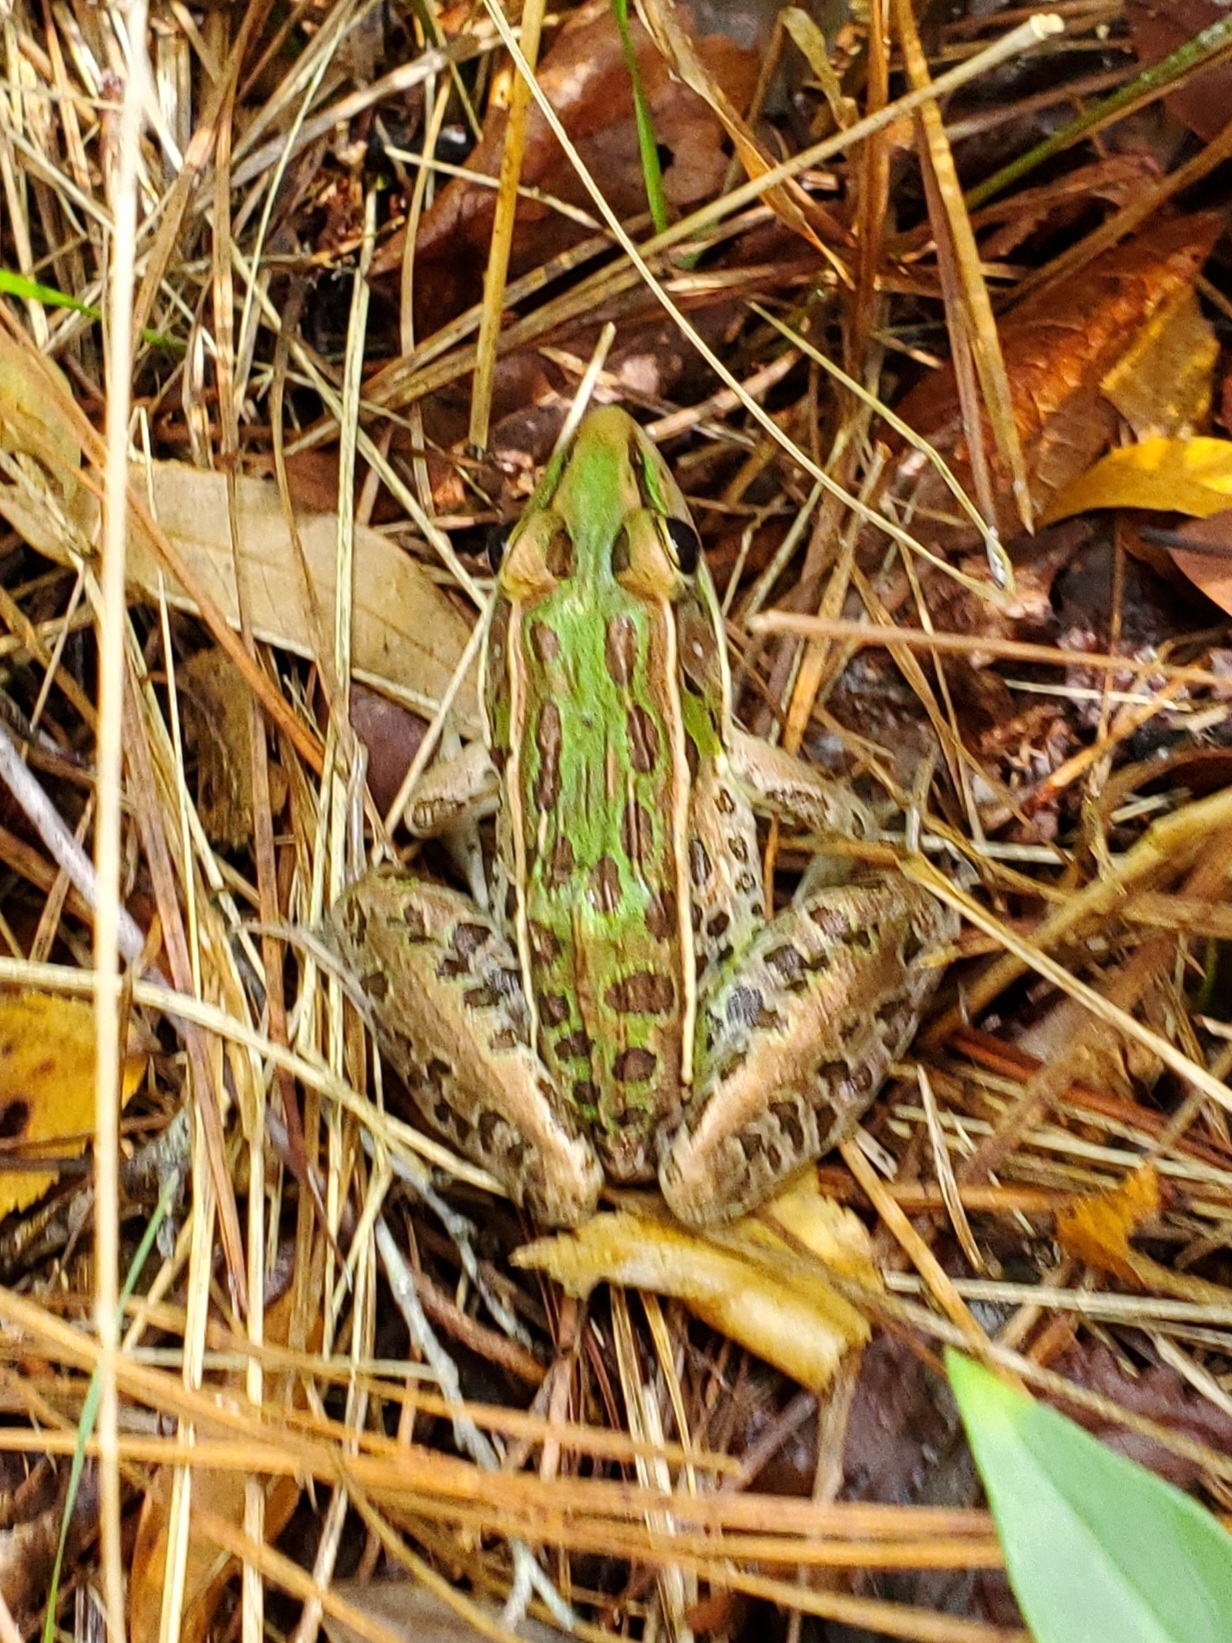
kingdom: Animalia
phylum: Chordata
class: Amphibia
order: Anura
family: Ranidae
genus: Lithobates
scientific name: Lithobates sphenocephalus
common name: Southern leopard frog
